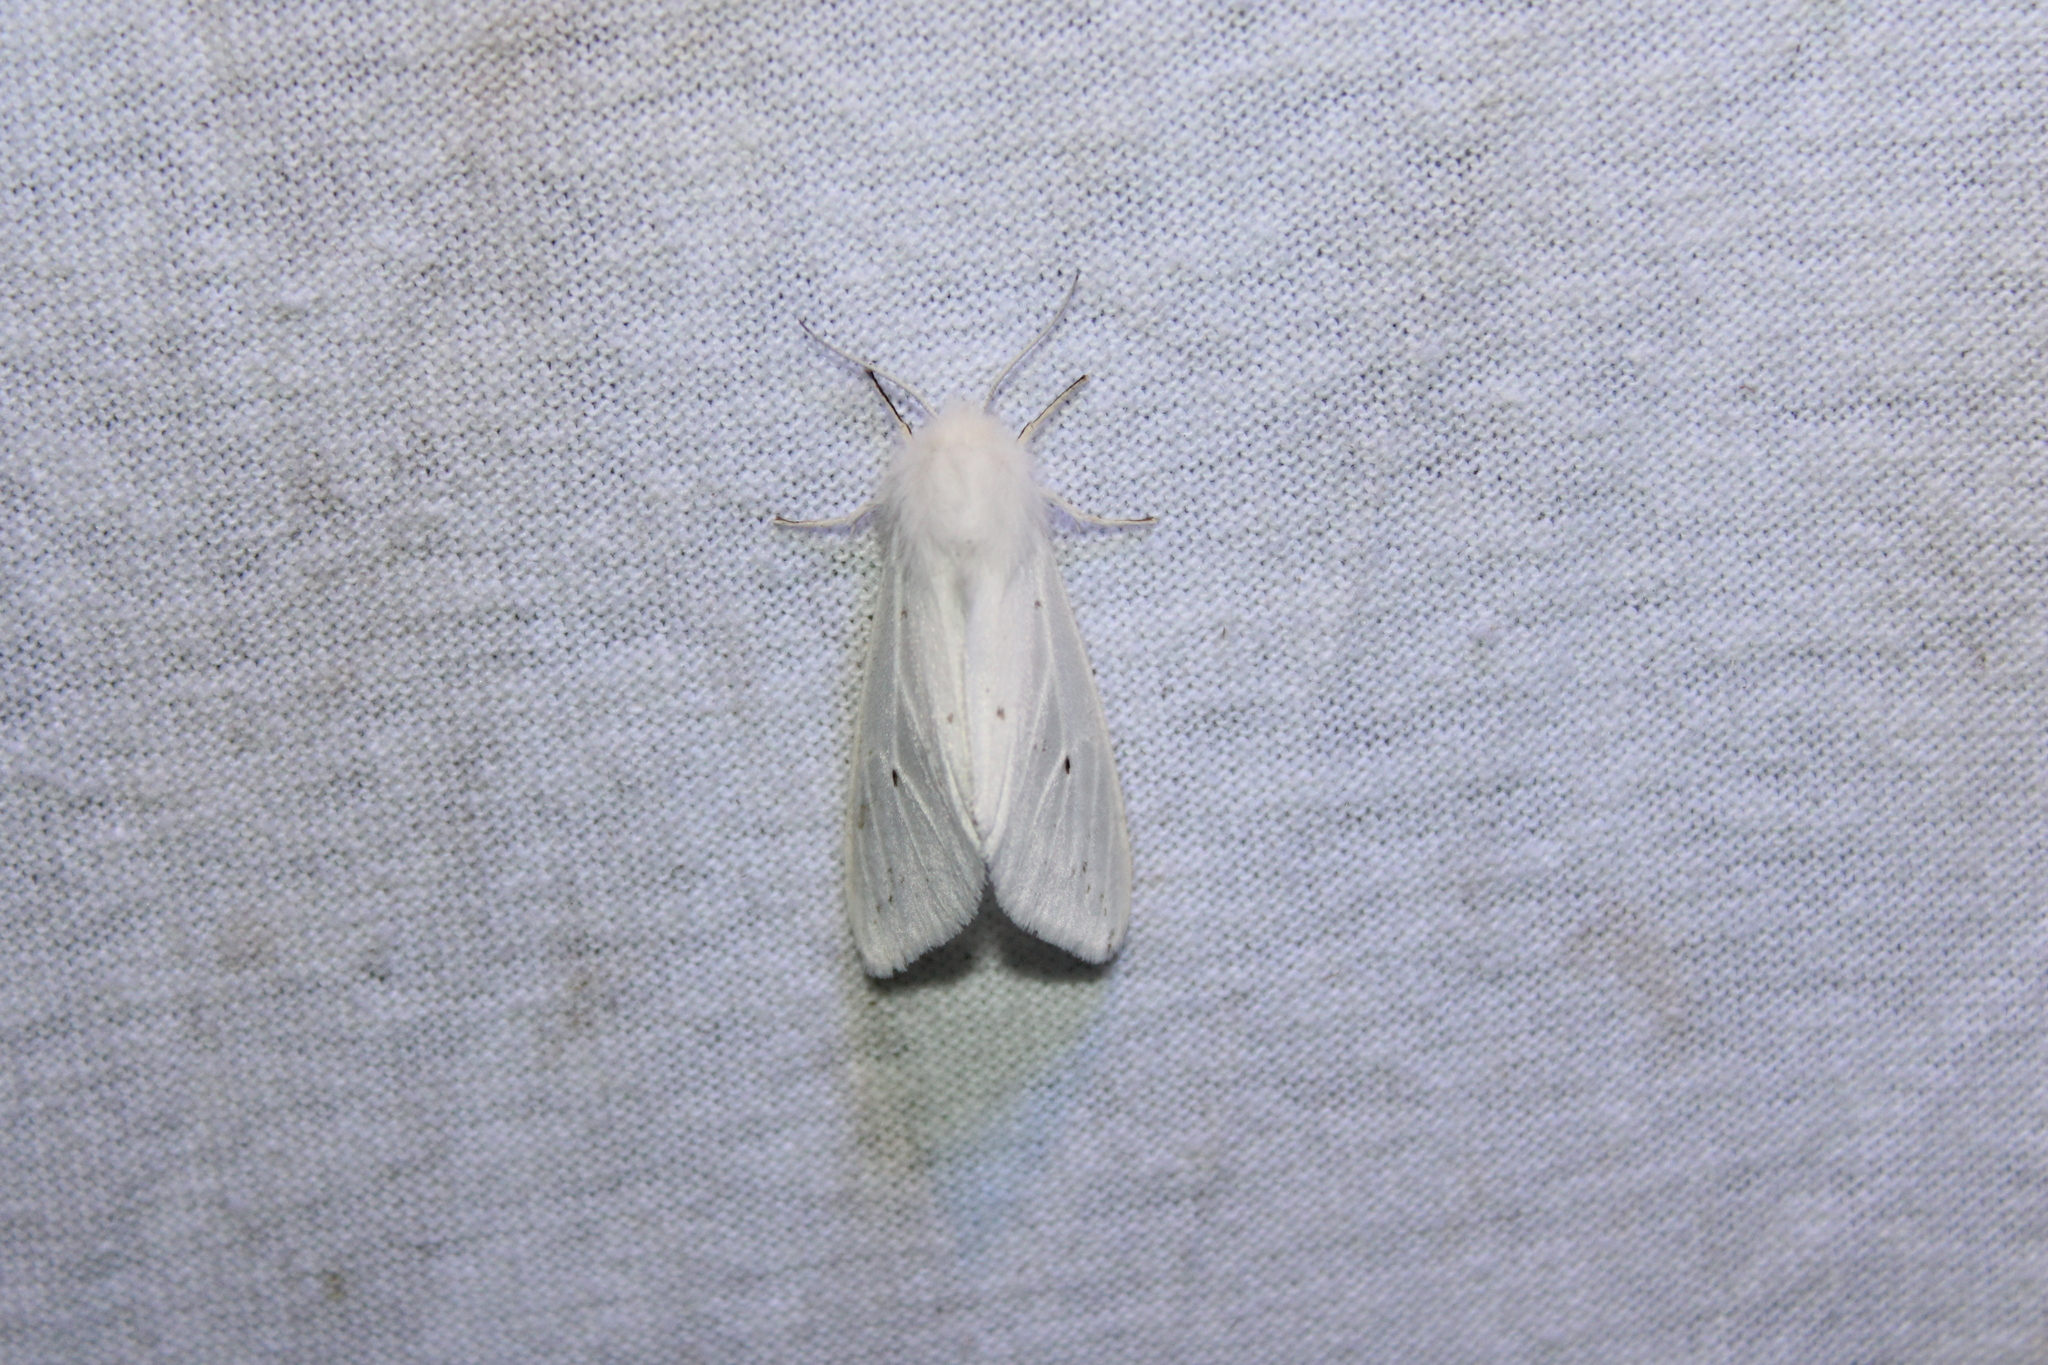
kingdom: Animalia
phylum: Arthropoda
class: Insecta
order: Lepidoptera
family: Erebidae
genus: Spilosoma
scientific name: Spilosoma congrua
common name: Agreeable tiger moth
